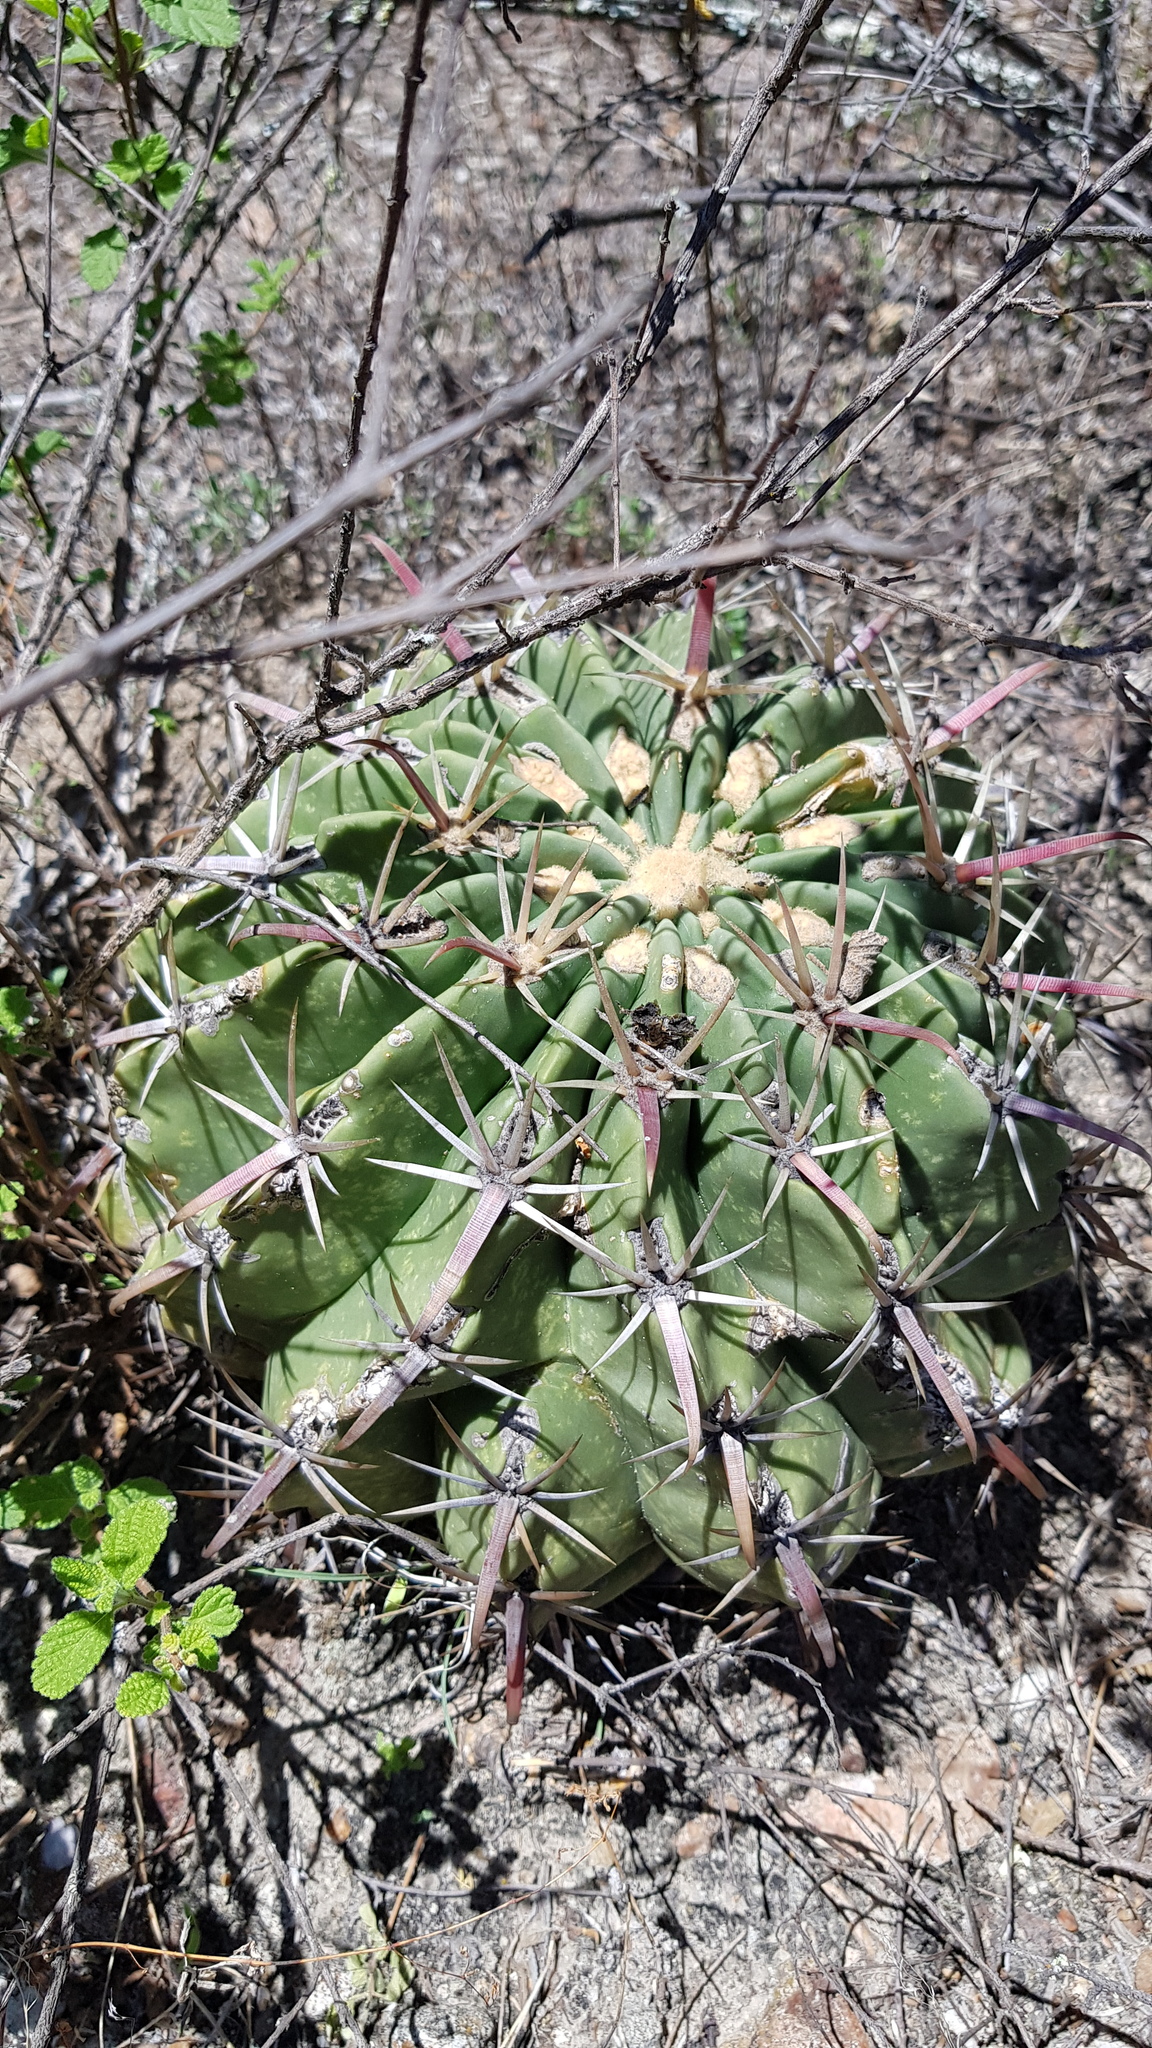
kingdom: Plantae
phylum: Tracheophyta
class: Magnoliopsida
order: Caryophyllales
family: Cactaceae
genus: Ferocactus
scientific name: Ferocactus latispinus
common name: Devil's-tongue cactus
